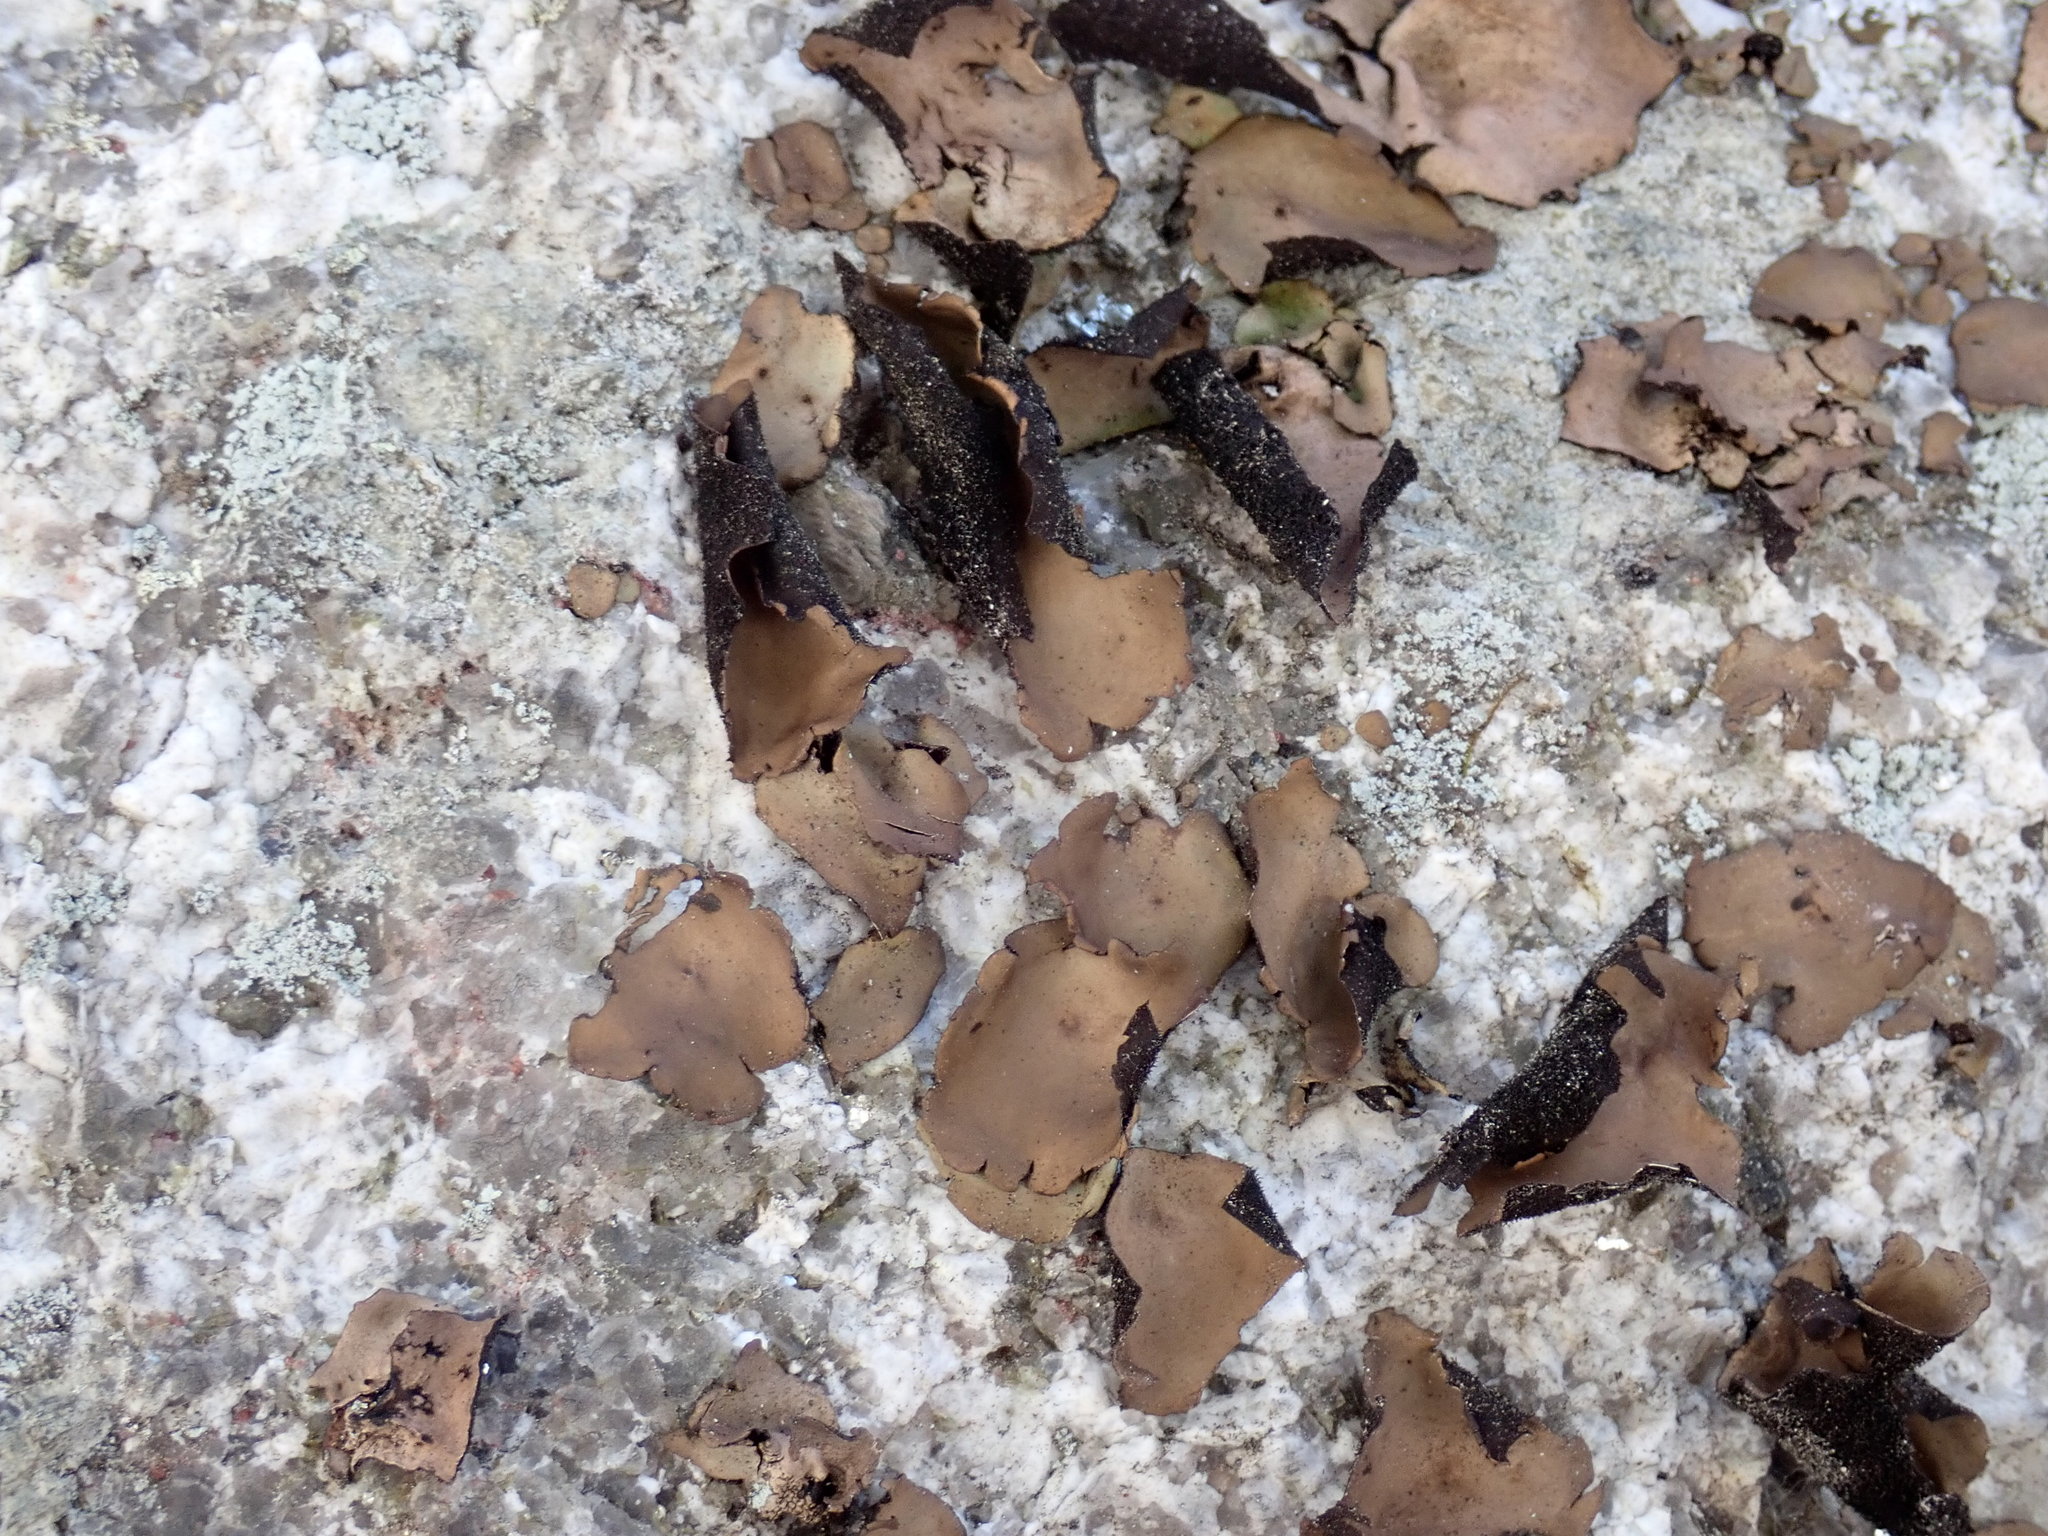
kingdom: Fungi
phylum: Ascomycota
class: Lecanoromycetes
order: Umbilicariales
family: Umbilicariaceae
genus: Umbilicaria
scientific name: Umbilicaria mammulata
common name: Smooth rock tripe
